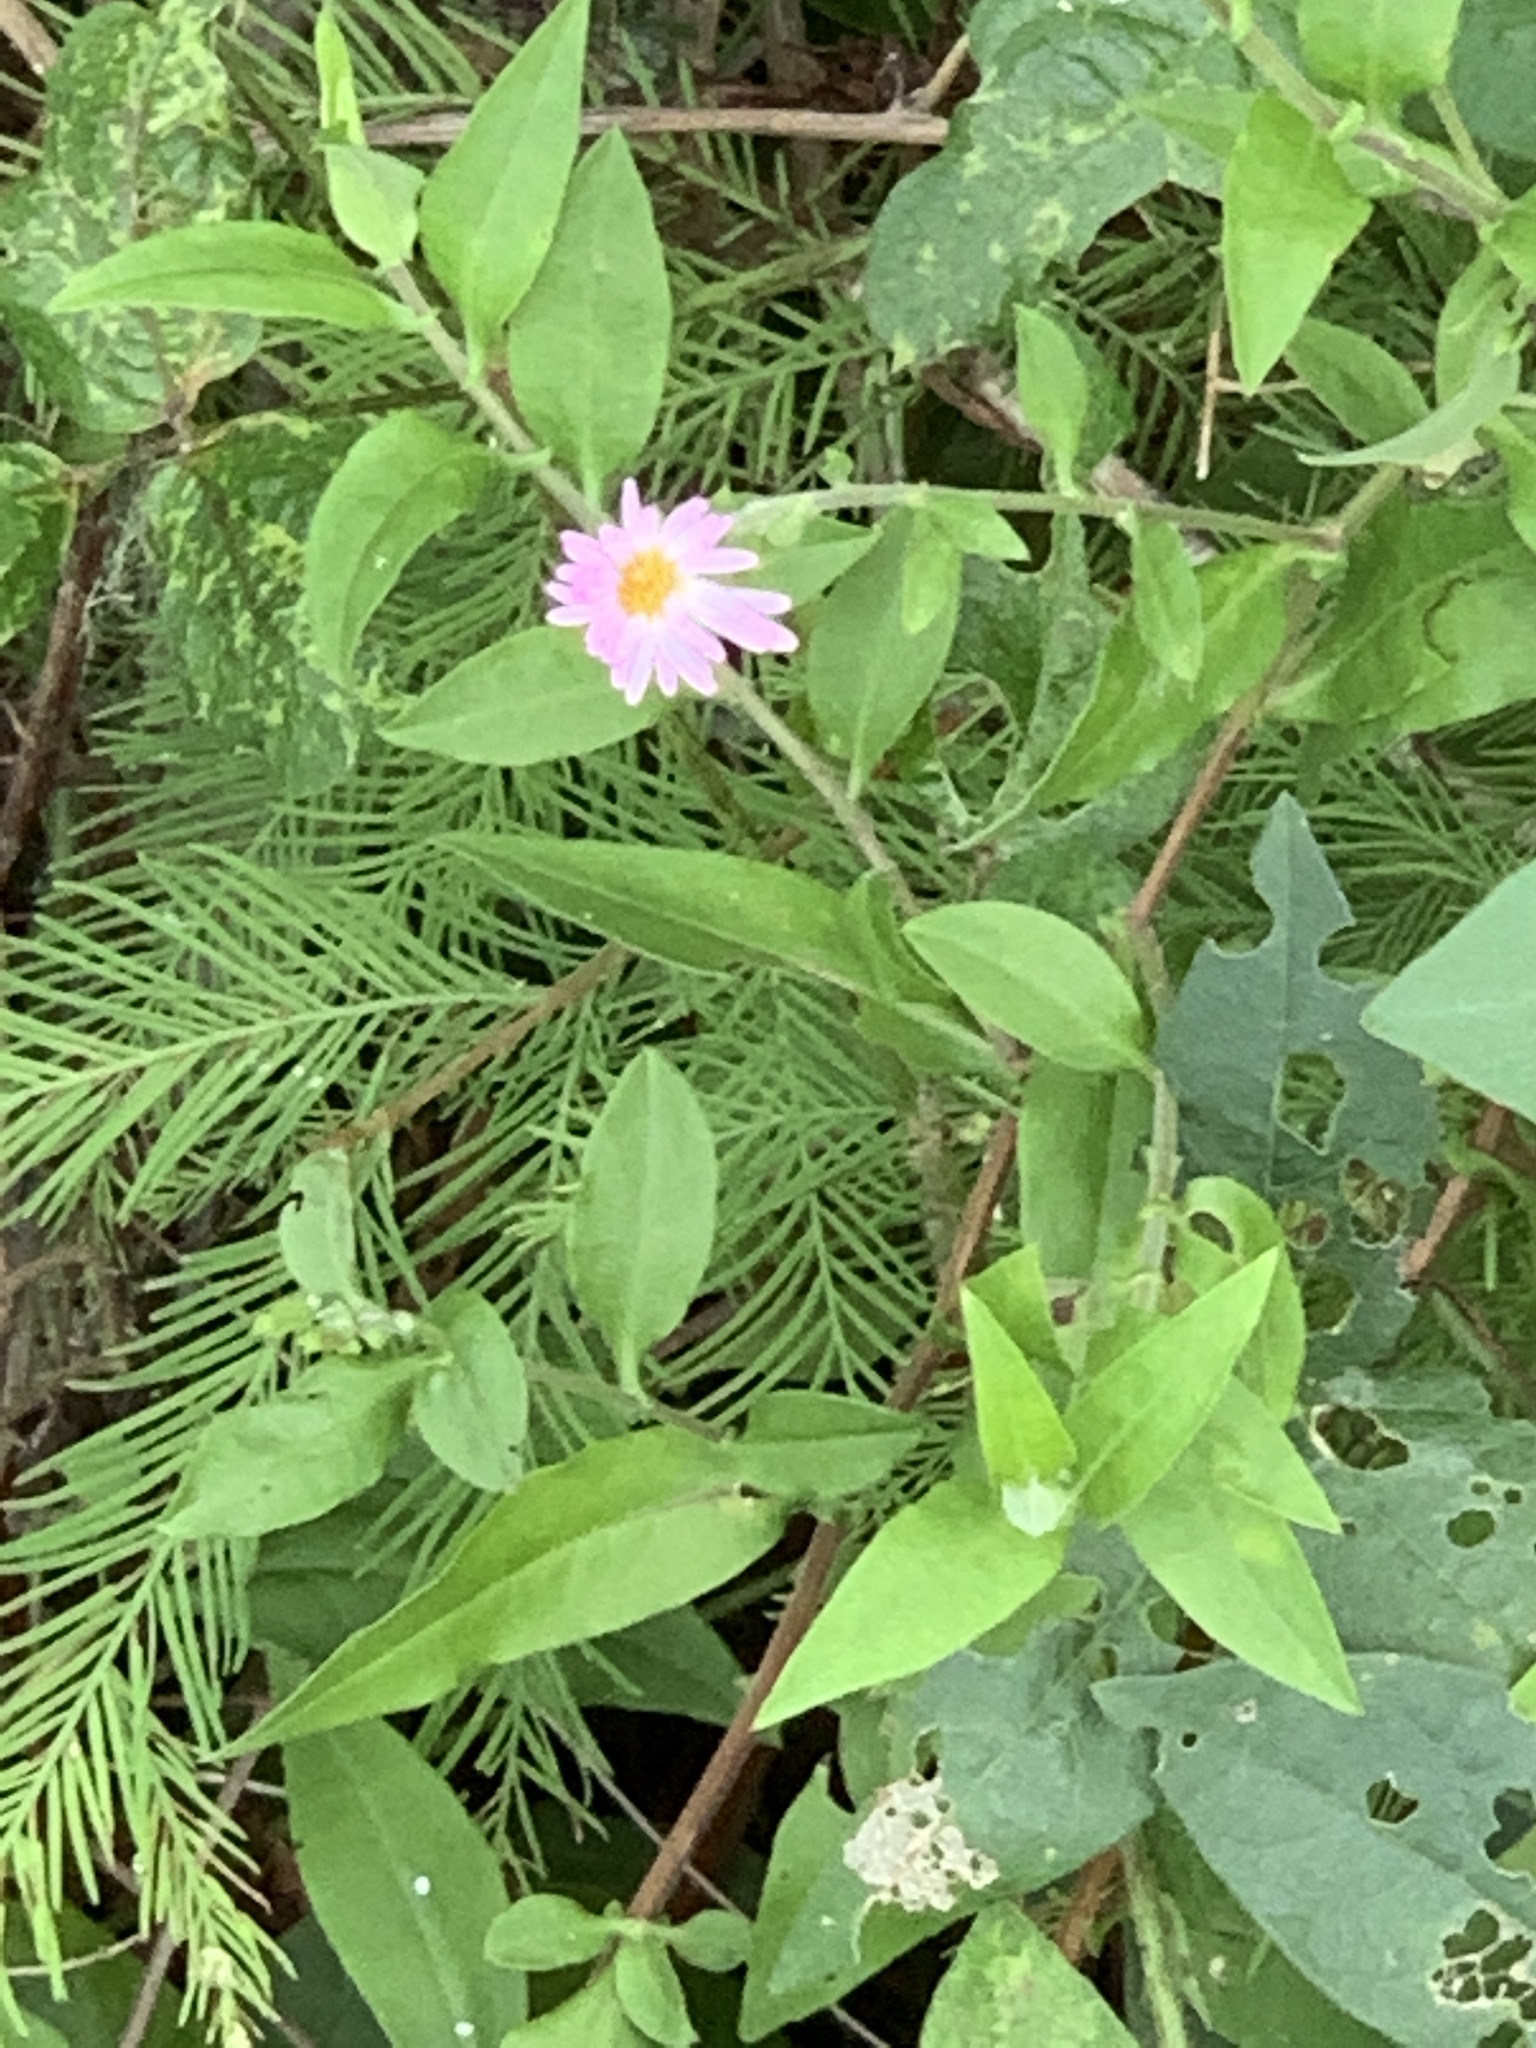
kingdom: Plantae
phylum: Tracheophyta
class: Magnoliopsida
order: Asterales
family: Asteraceae
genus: Ampelaster
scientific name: Ampelaster carolinianus
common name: Climbing aster
